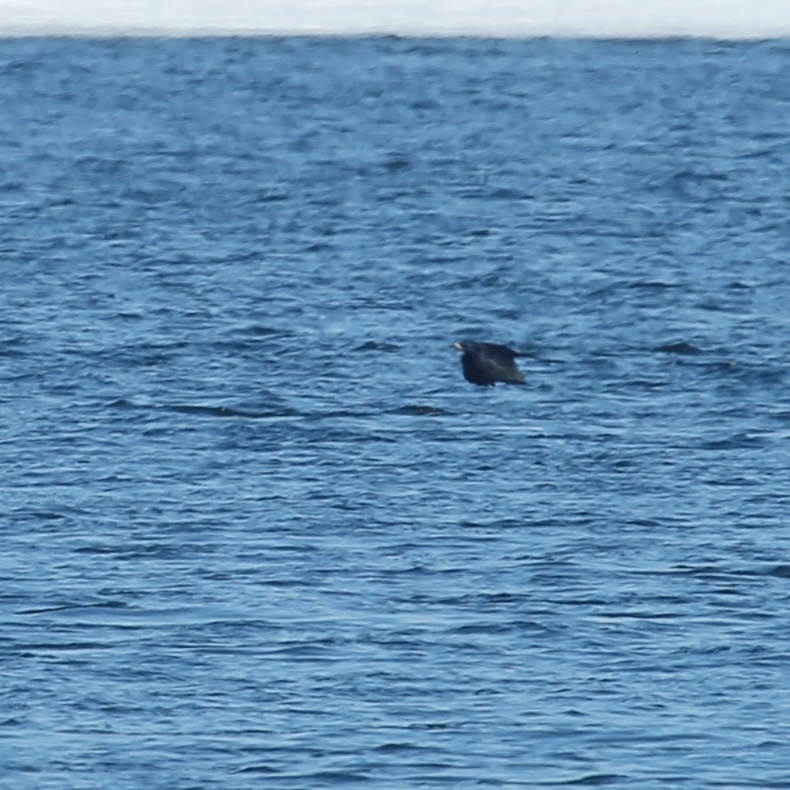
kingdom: Animalia
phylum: Chordata
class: Aves
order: Passeriformes
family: Corvidae
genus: Corvus
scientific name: Corvus frugilegus
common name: Rook
